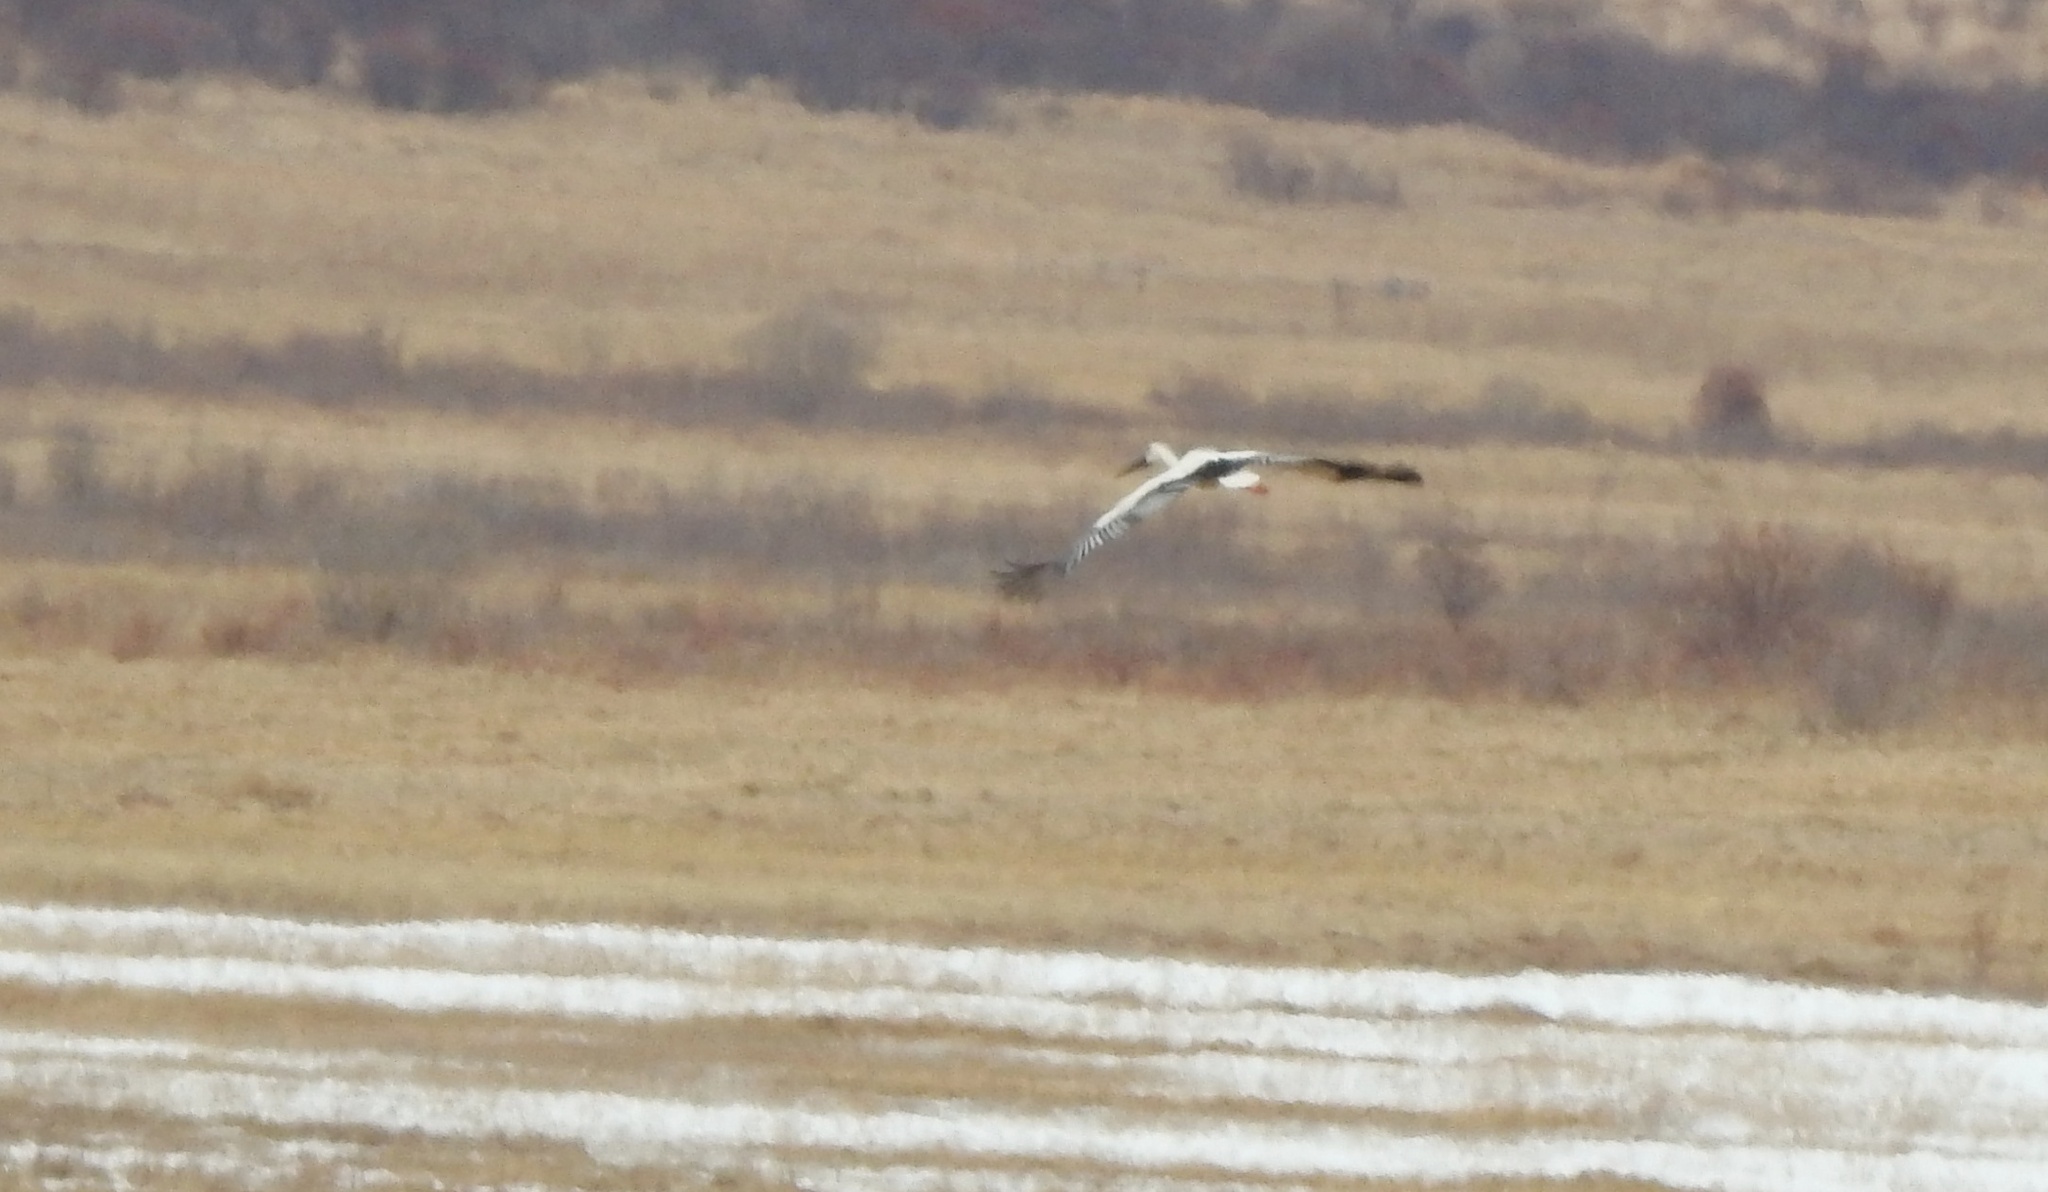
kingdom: Animalia
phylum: Chordata
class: Aves
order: Ciconiiformes
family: Ciconiidae
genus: Ciconia
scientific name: Ciconia boyciana
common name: Oriental stork
